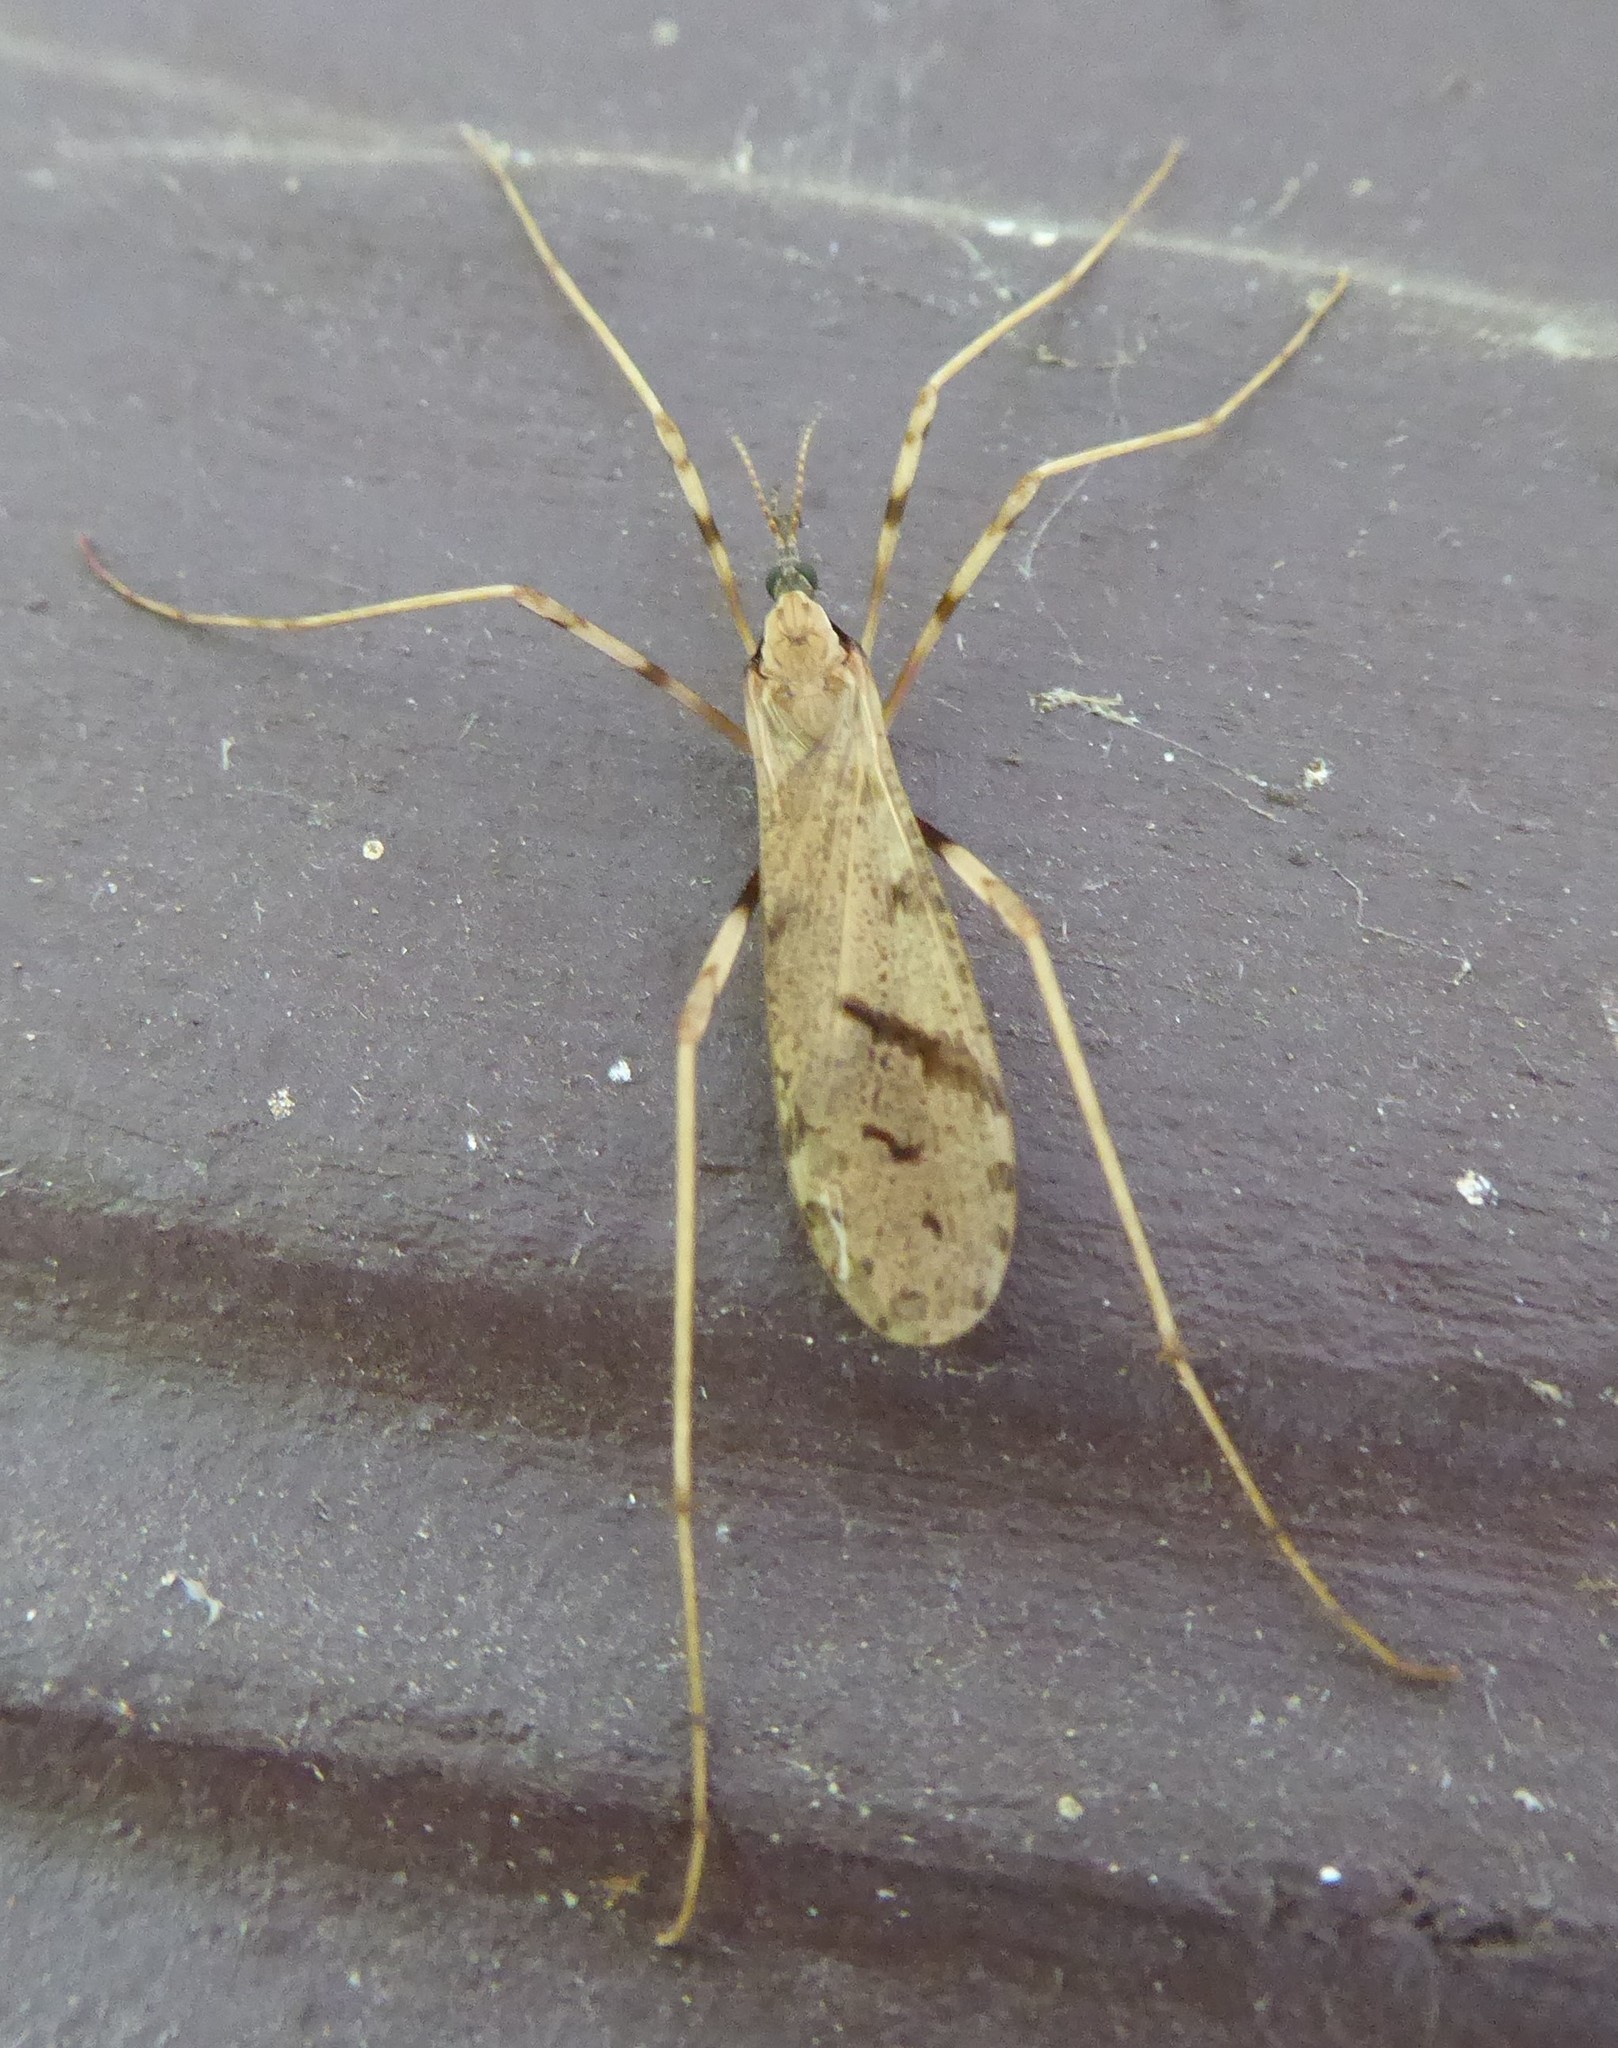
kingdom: Animalia
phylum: Arthropoda
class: Insecta
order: Diptera
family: Limoniidae
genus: Rhamphophila
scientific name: Rhamphophila sinistra
